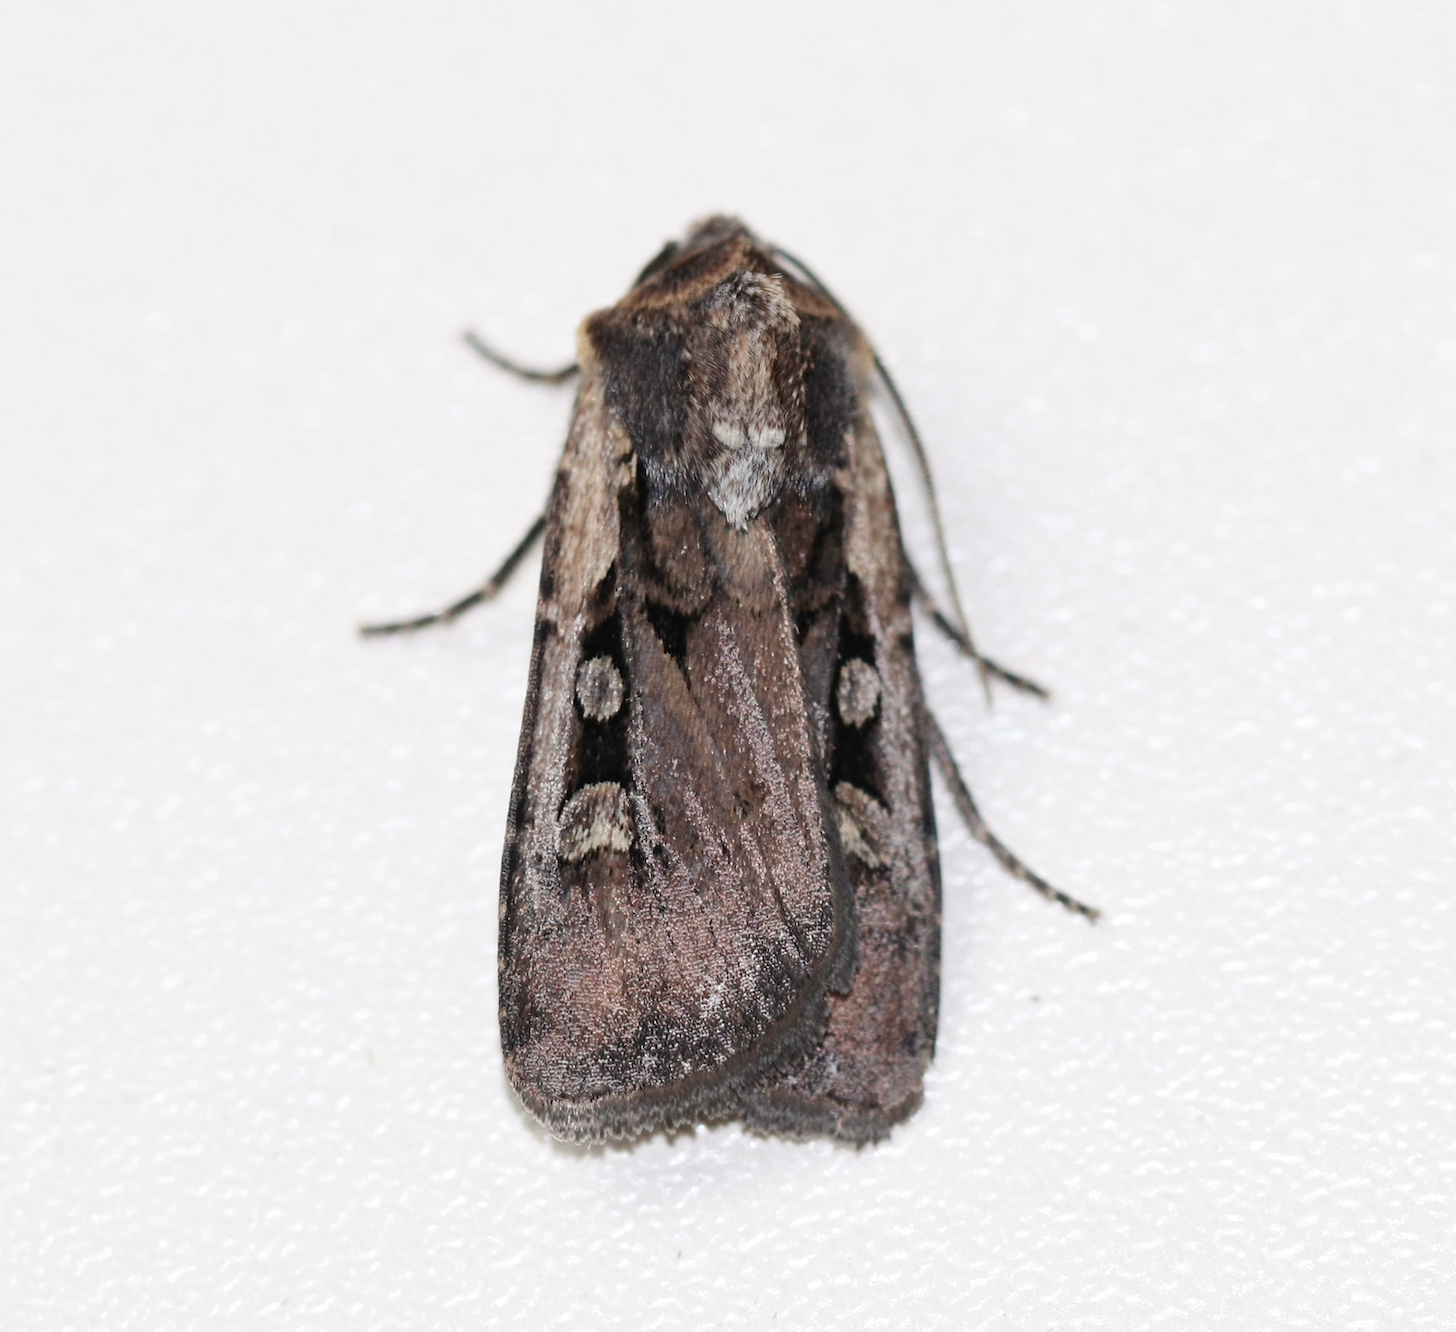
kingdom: Animalia
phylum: Arthropoda
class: Insecta
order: Lepidoptera
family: Noctuidae
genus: Euxoa
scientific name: Euxoa obelisca
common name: Square-spot dart
